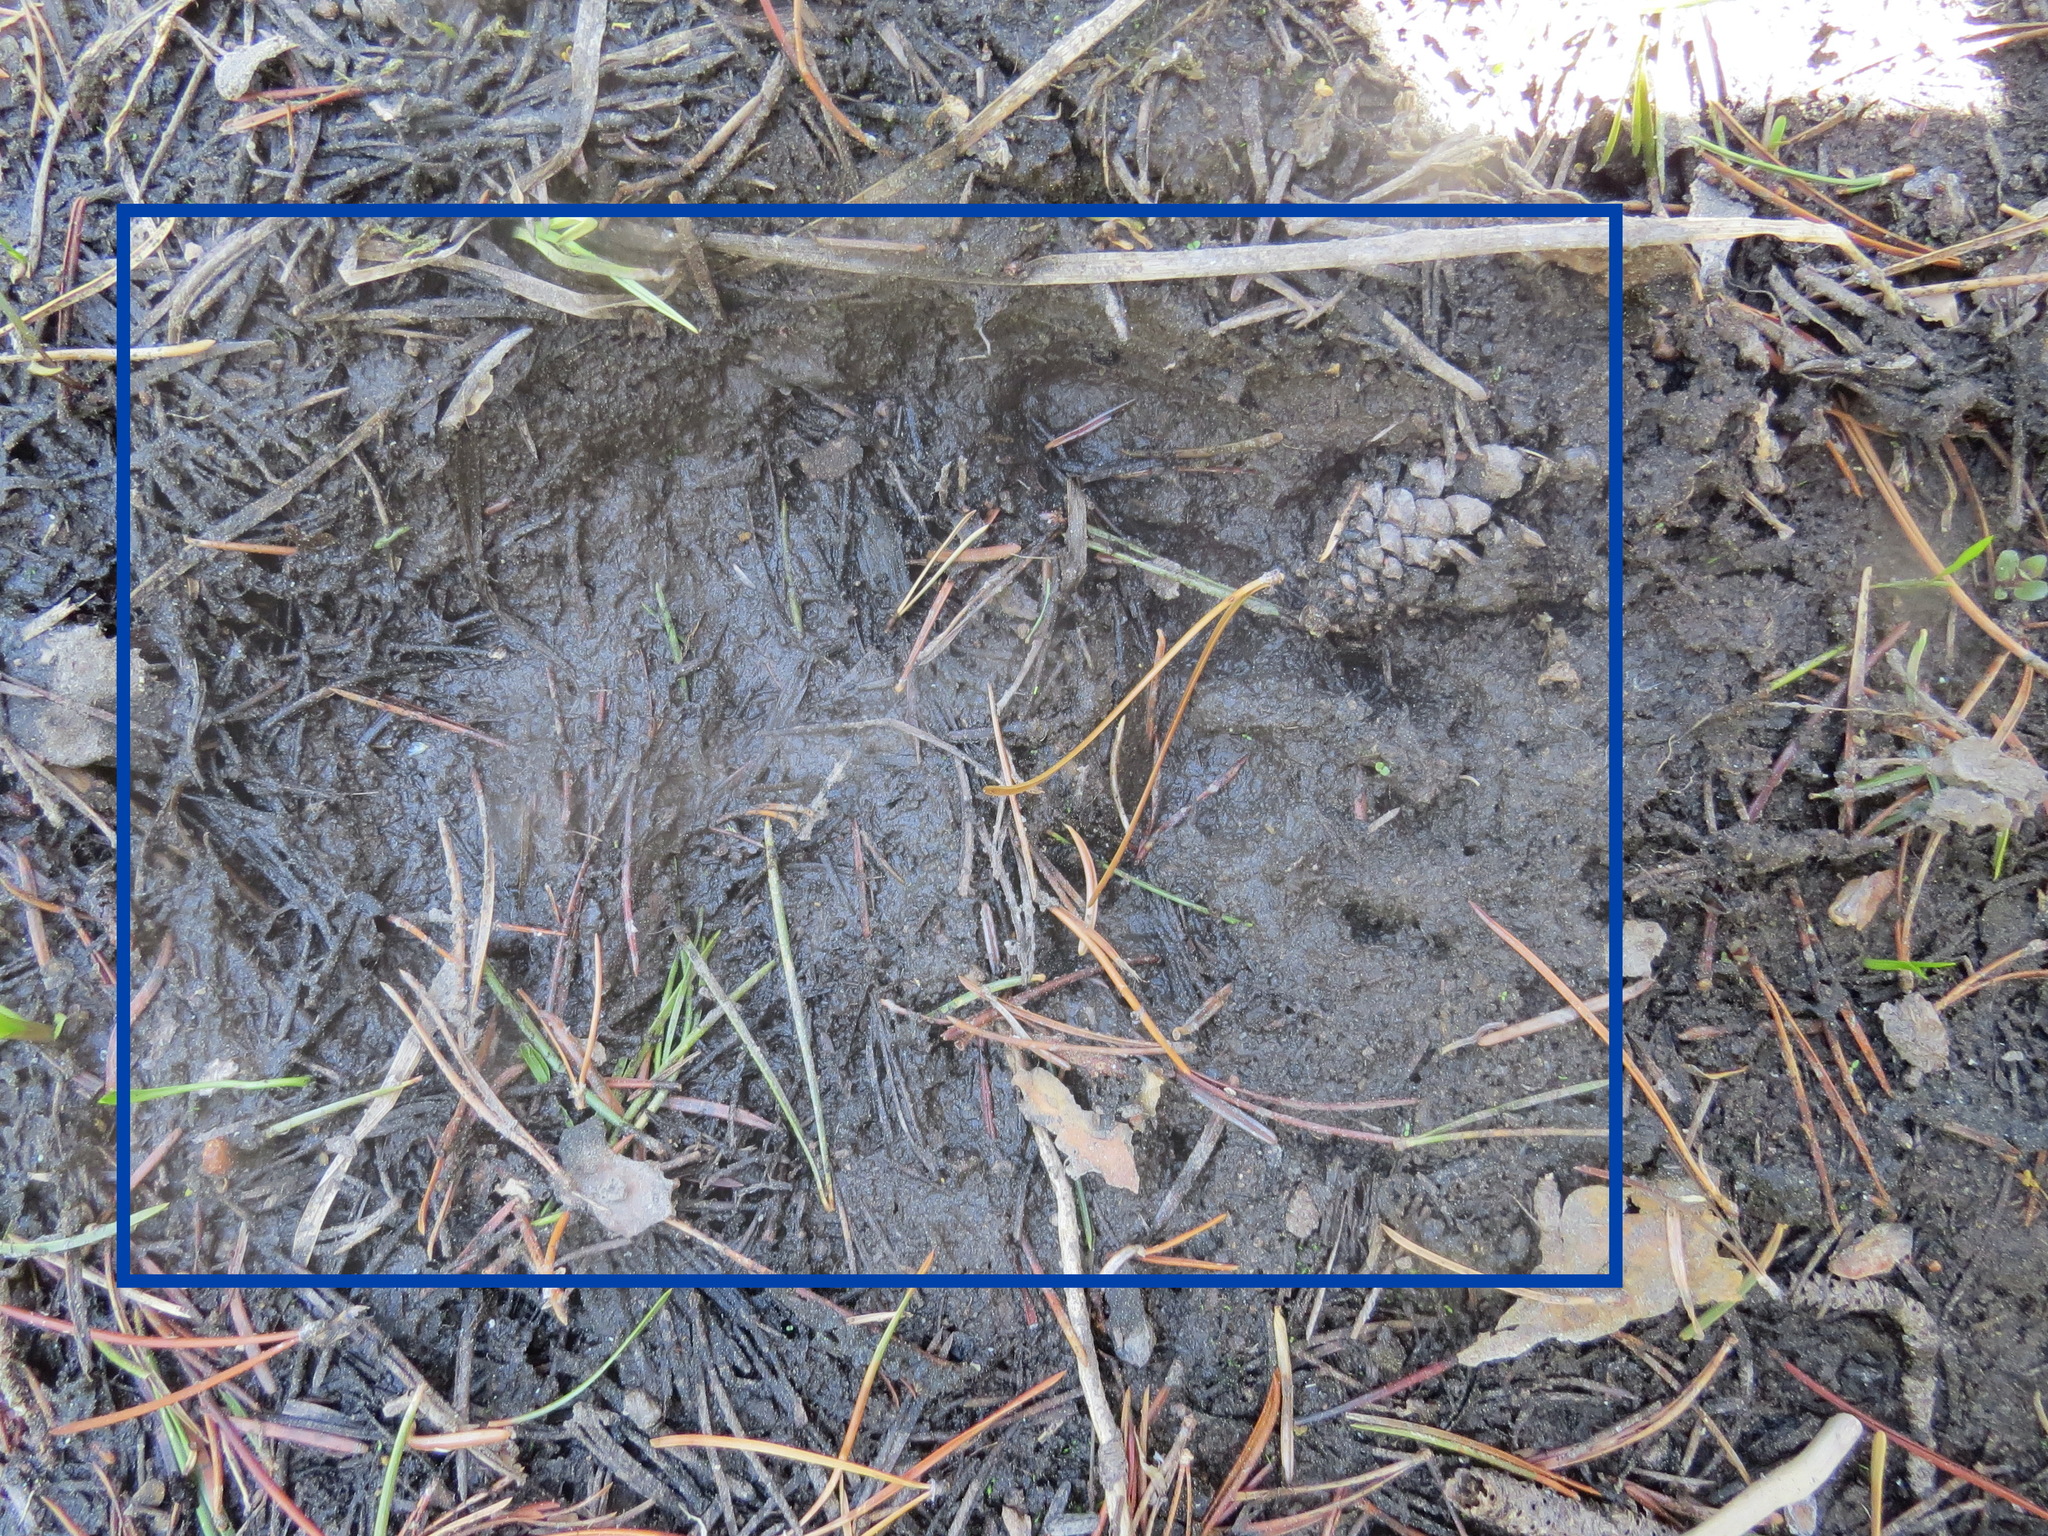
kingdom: Animalia
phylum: Chordata
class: Mammalia
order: Carnivora
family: Ursidae
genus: Ursus
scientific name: Ursus americanus
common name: American black bear
